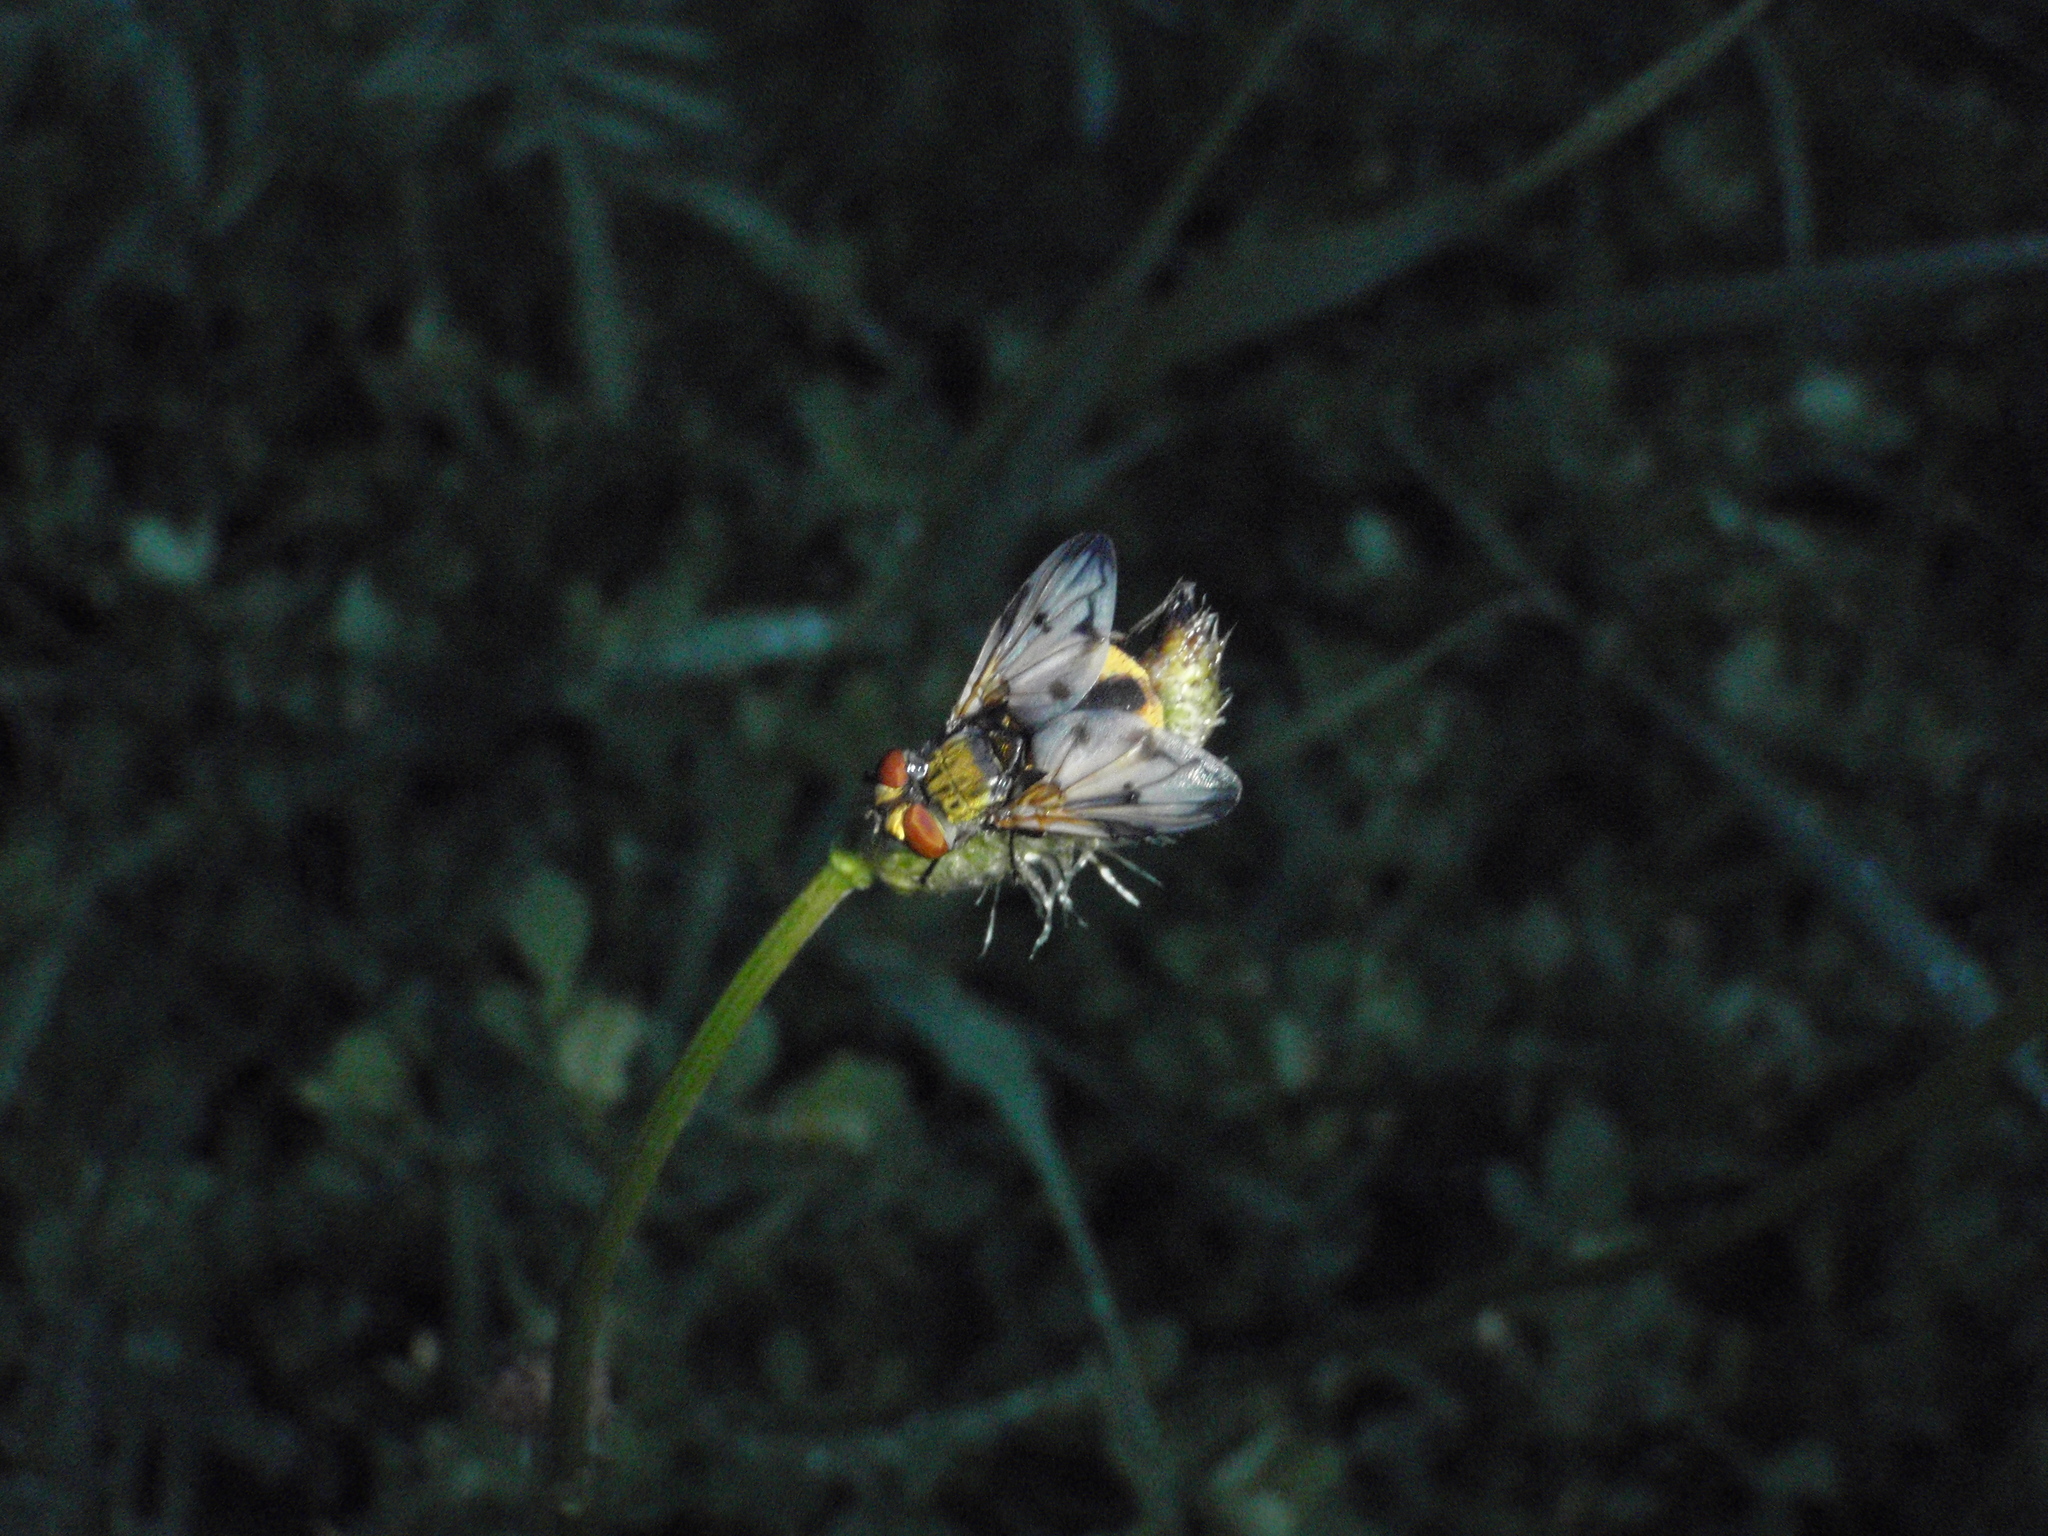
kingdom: Animalia
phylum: Arthropoda
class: Insecta
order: Diptera
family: Tachinidae
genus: Ectophasia
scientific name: Ectophasia crassipennis
